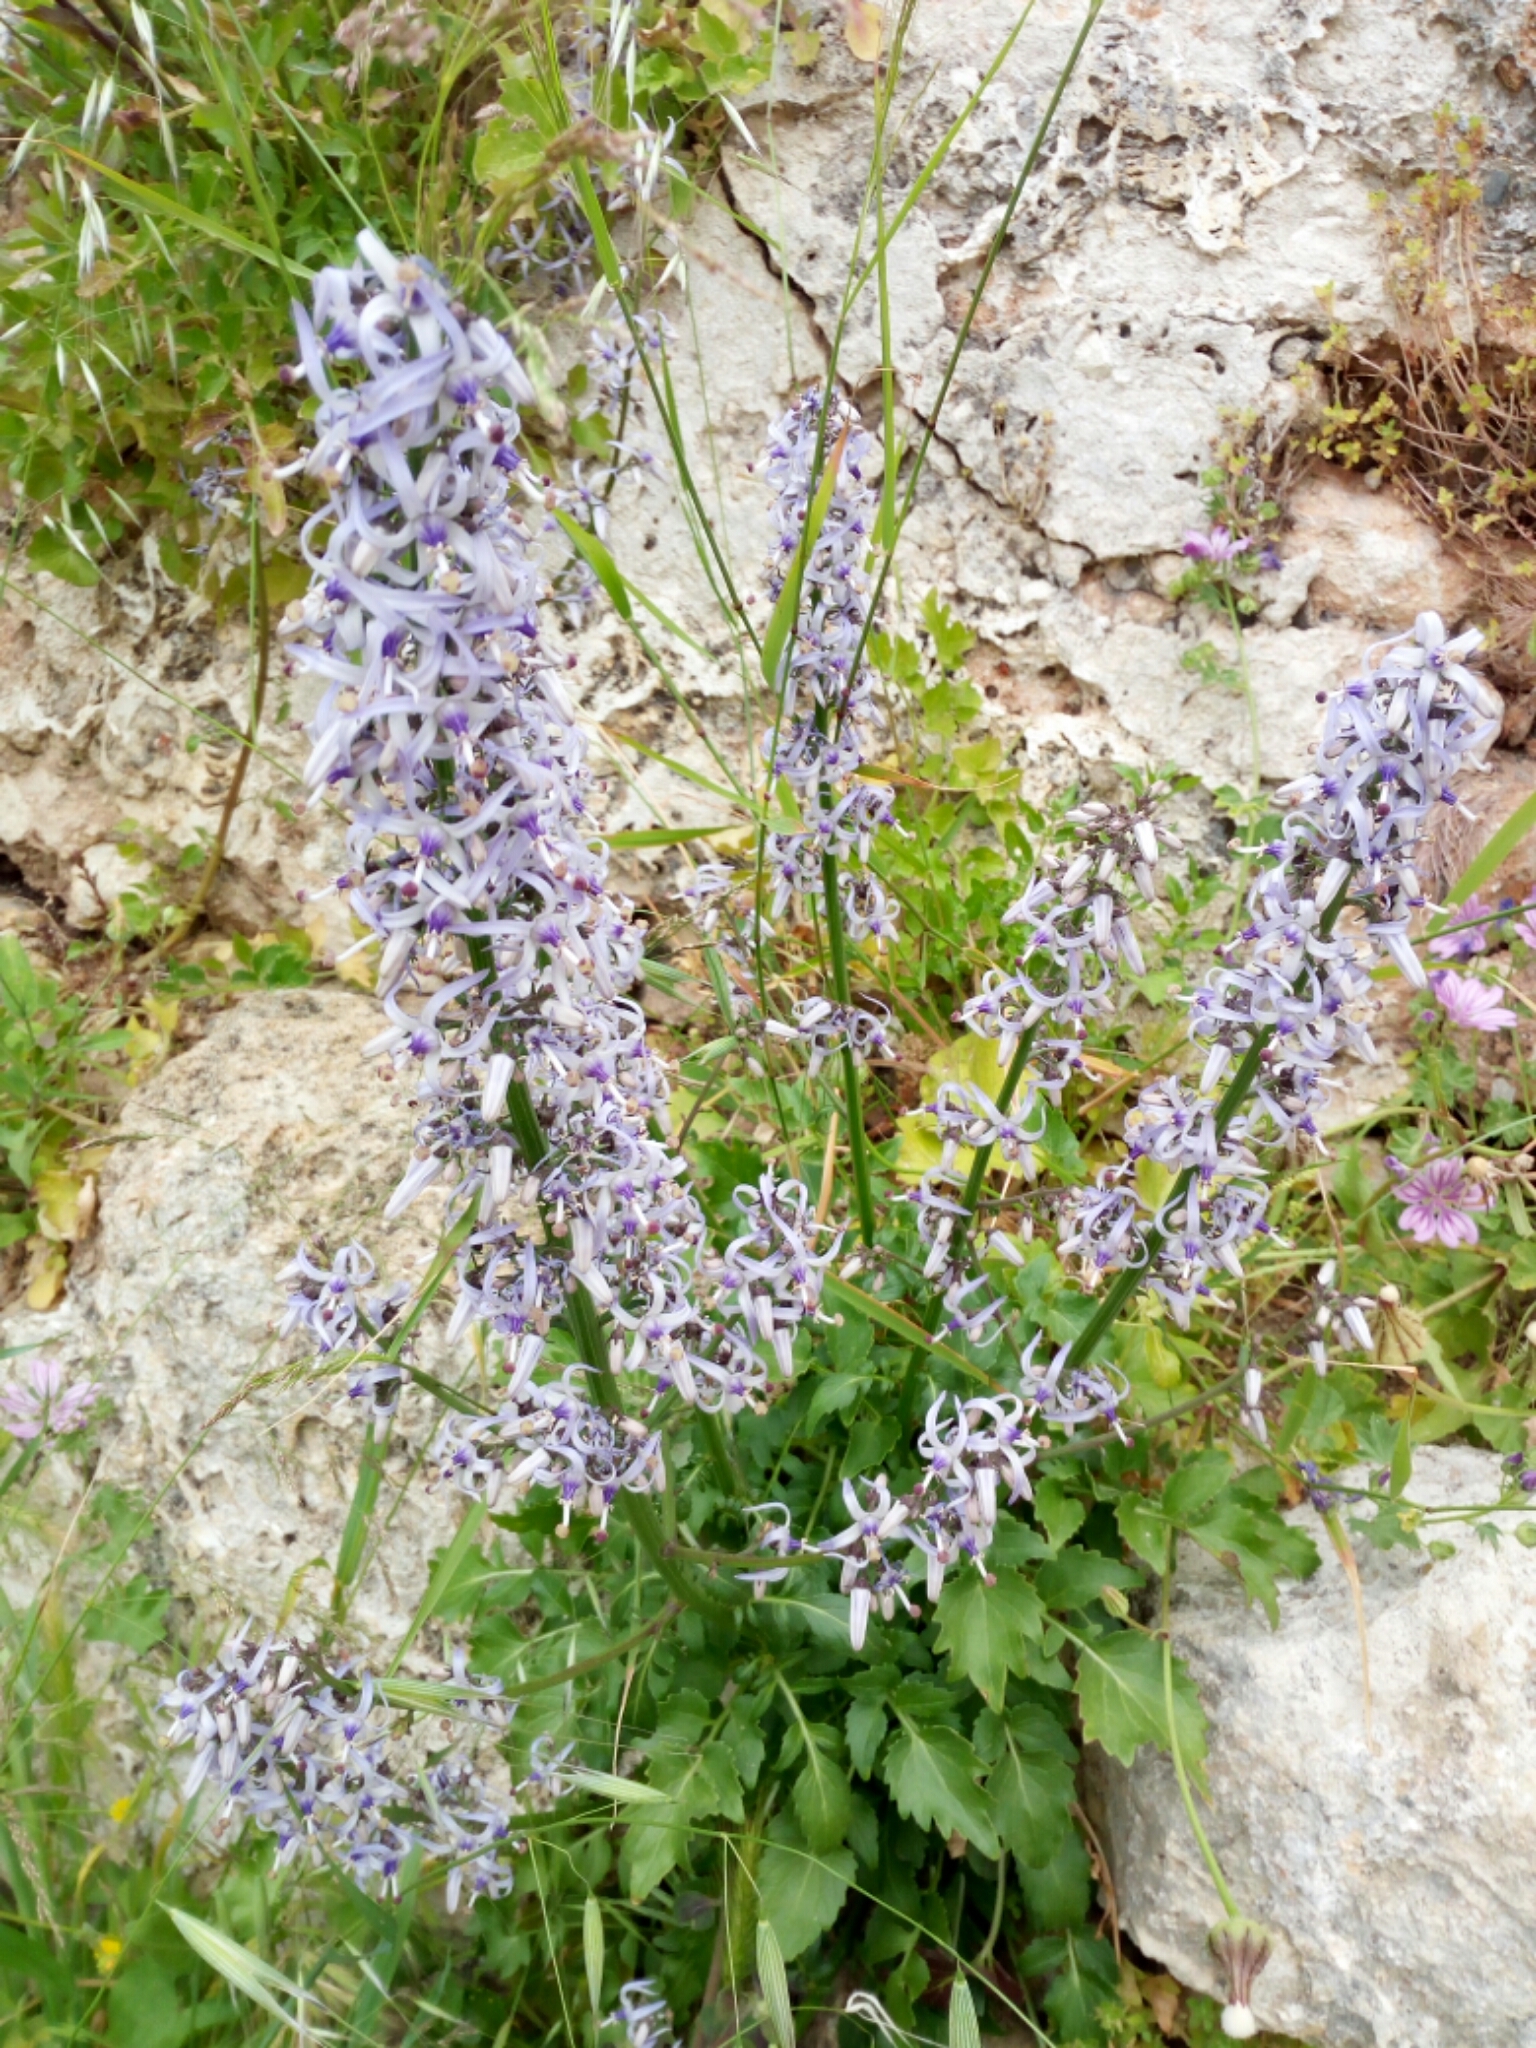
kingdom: Plantae
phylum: Tracheophyta
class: Magnoliopsida
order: Asterales
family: Campanulaceae
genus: Petromarula
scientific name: Petromarula pinnata
